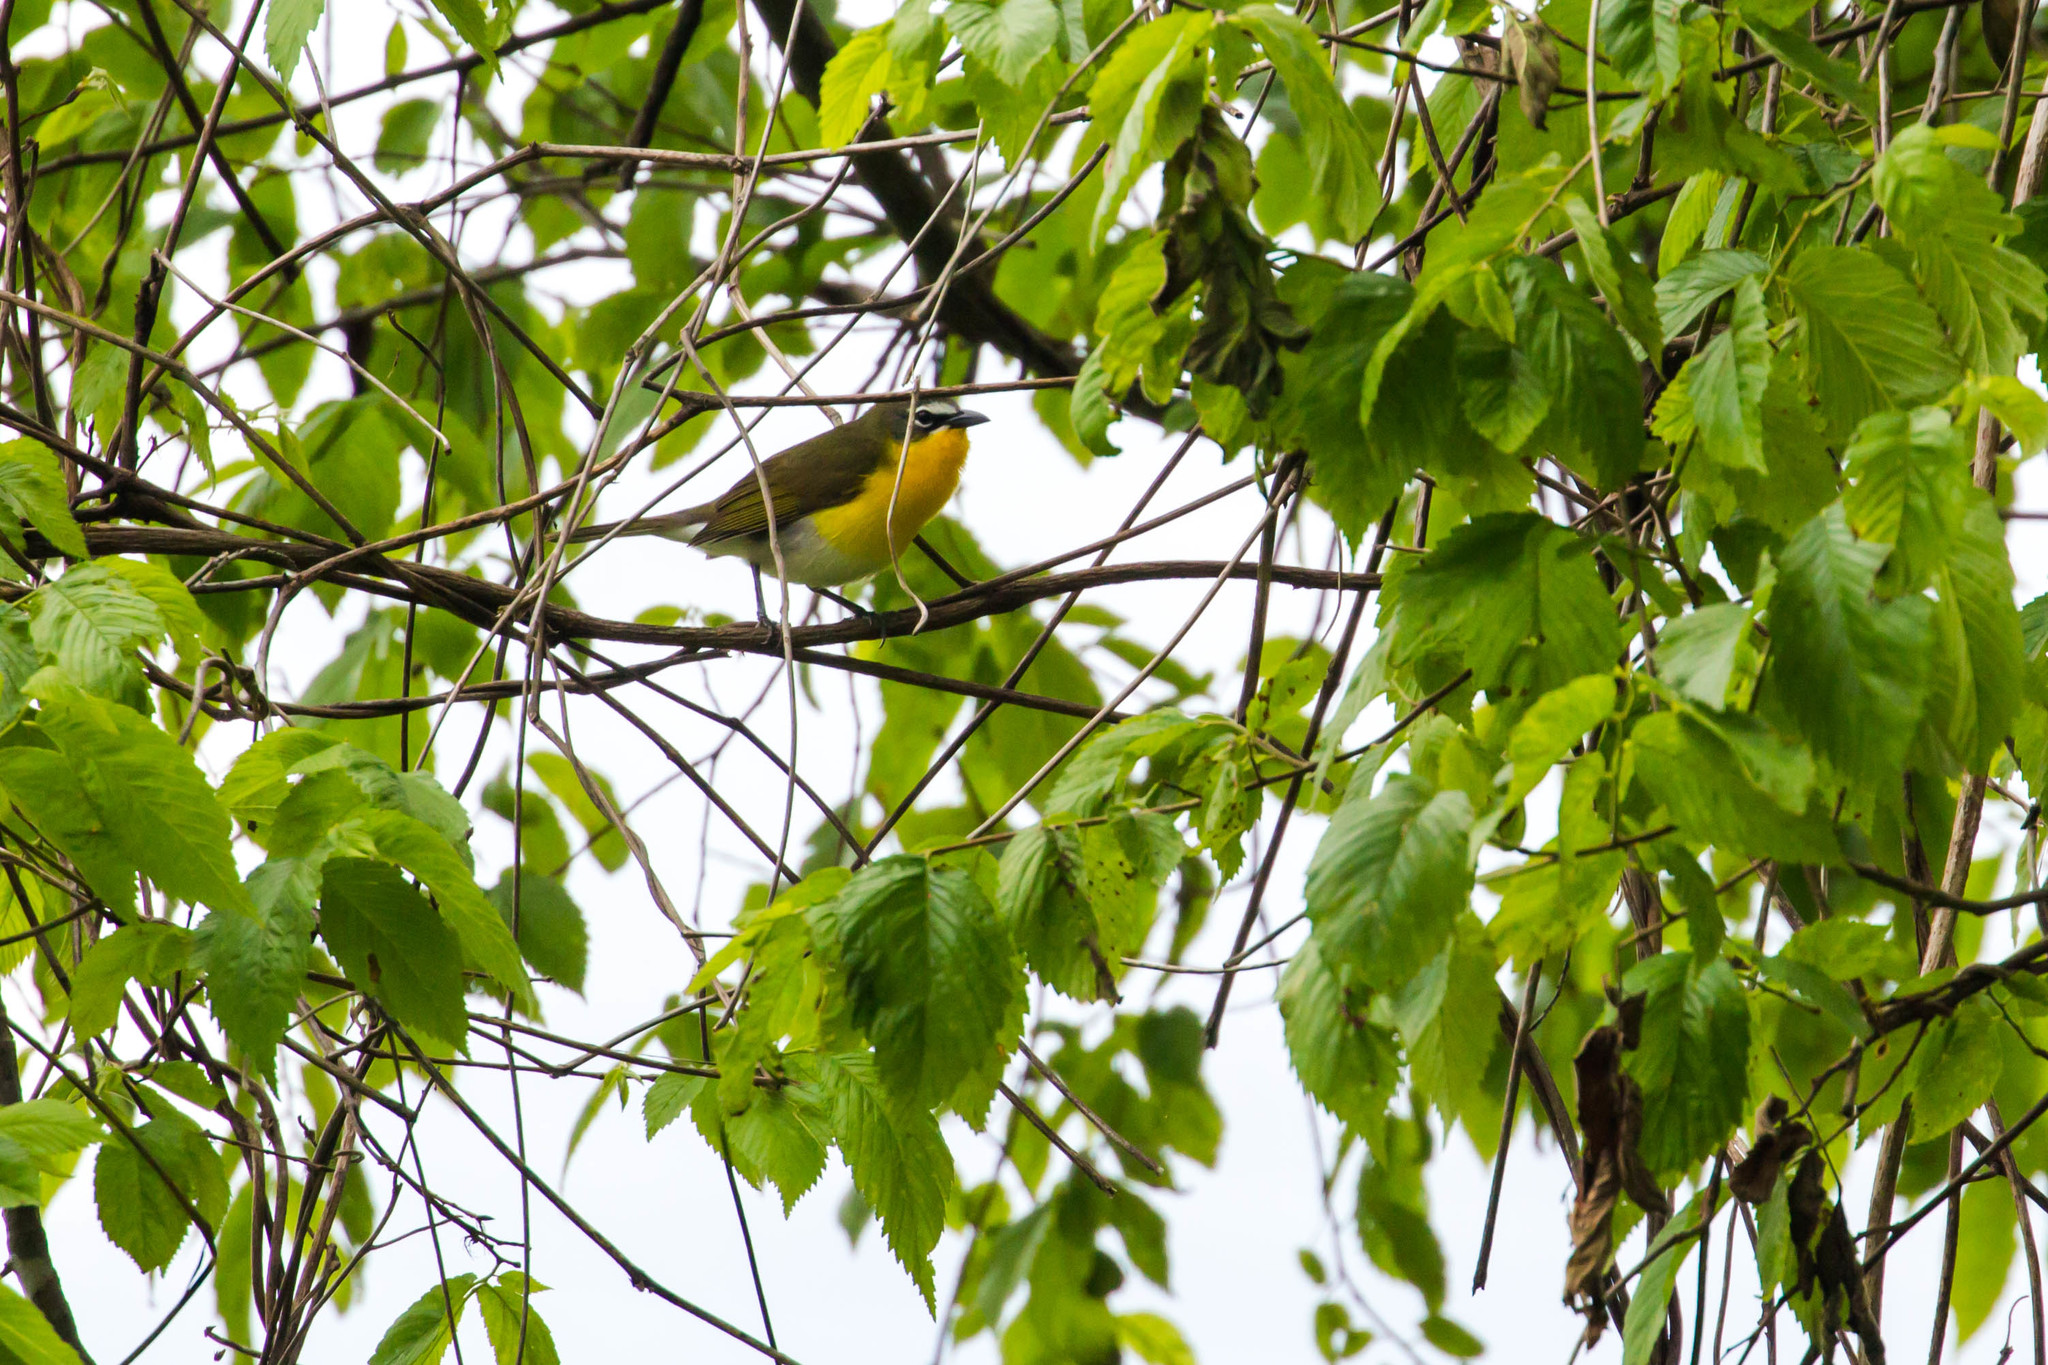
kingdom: Animalia
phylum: Chordata
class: Aves
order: Passeriformes
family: Parulidae
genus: Icteria
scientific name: Icteria virens
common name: Yellow-breasted chat
